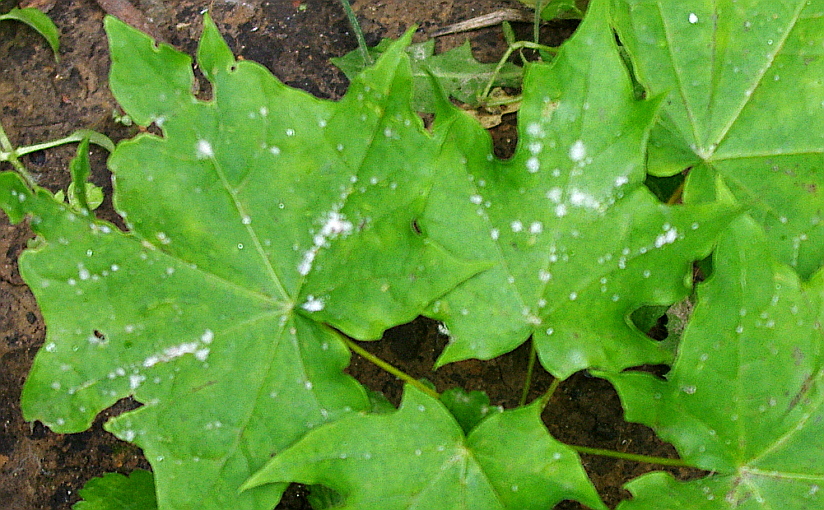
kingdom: Fungi
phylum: Ascomycota
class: Leotiomycetes
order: Helotiales
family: Erysiphaceae
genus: Sawadaea
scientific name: Sawadaea tulasnei
